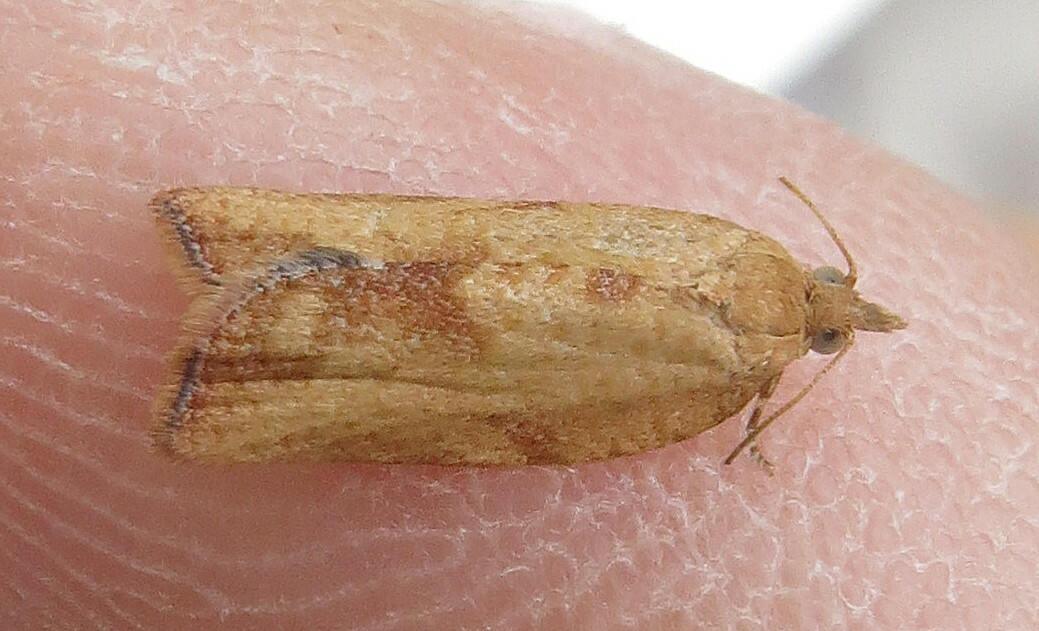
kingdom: Animalia
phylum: Arthropoda
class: Insecta
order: Lepidoptera
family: Tortricidae
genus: Epiphyas
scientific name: Epiphyas postvittana
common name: Light brown apple moth
